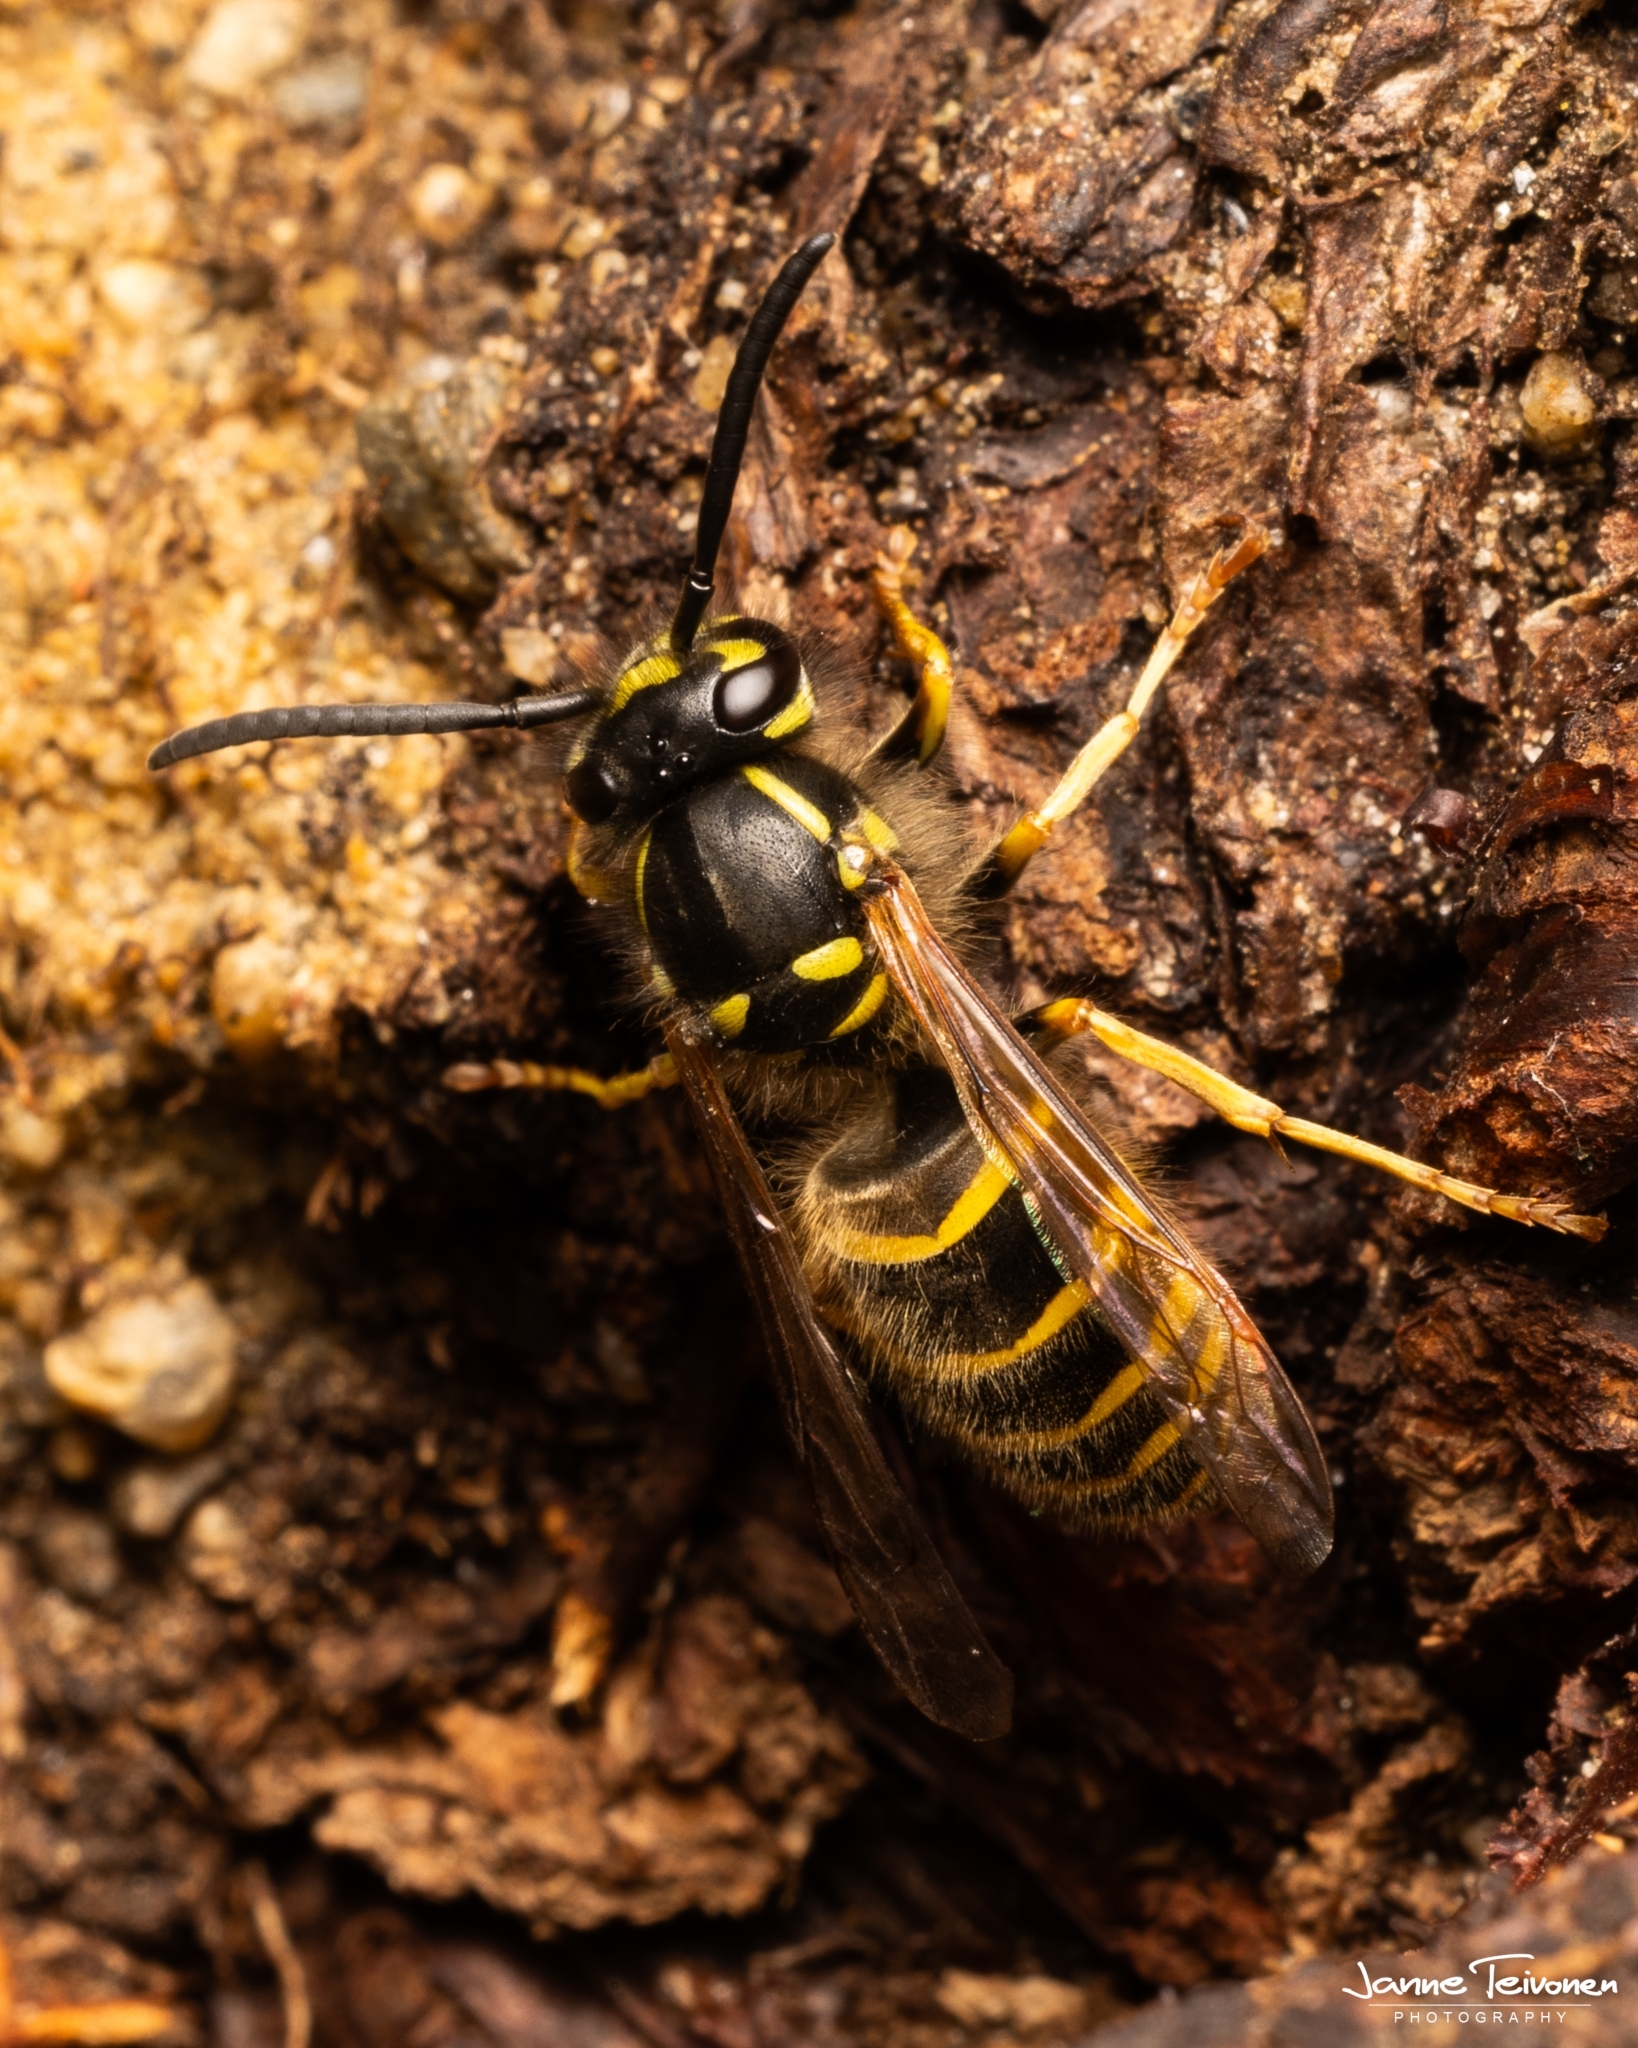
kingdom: Animalia
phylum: Arthropoda
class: Insecta
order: Hymenoptera
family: Vespidae
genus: Vespula
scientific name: Vespula vulgaris
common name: Common wasp
